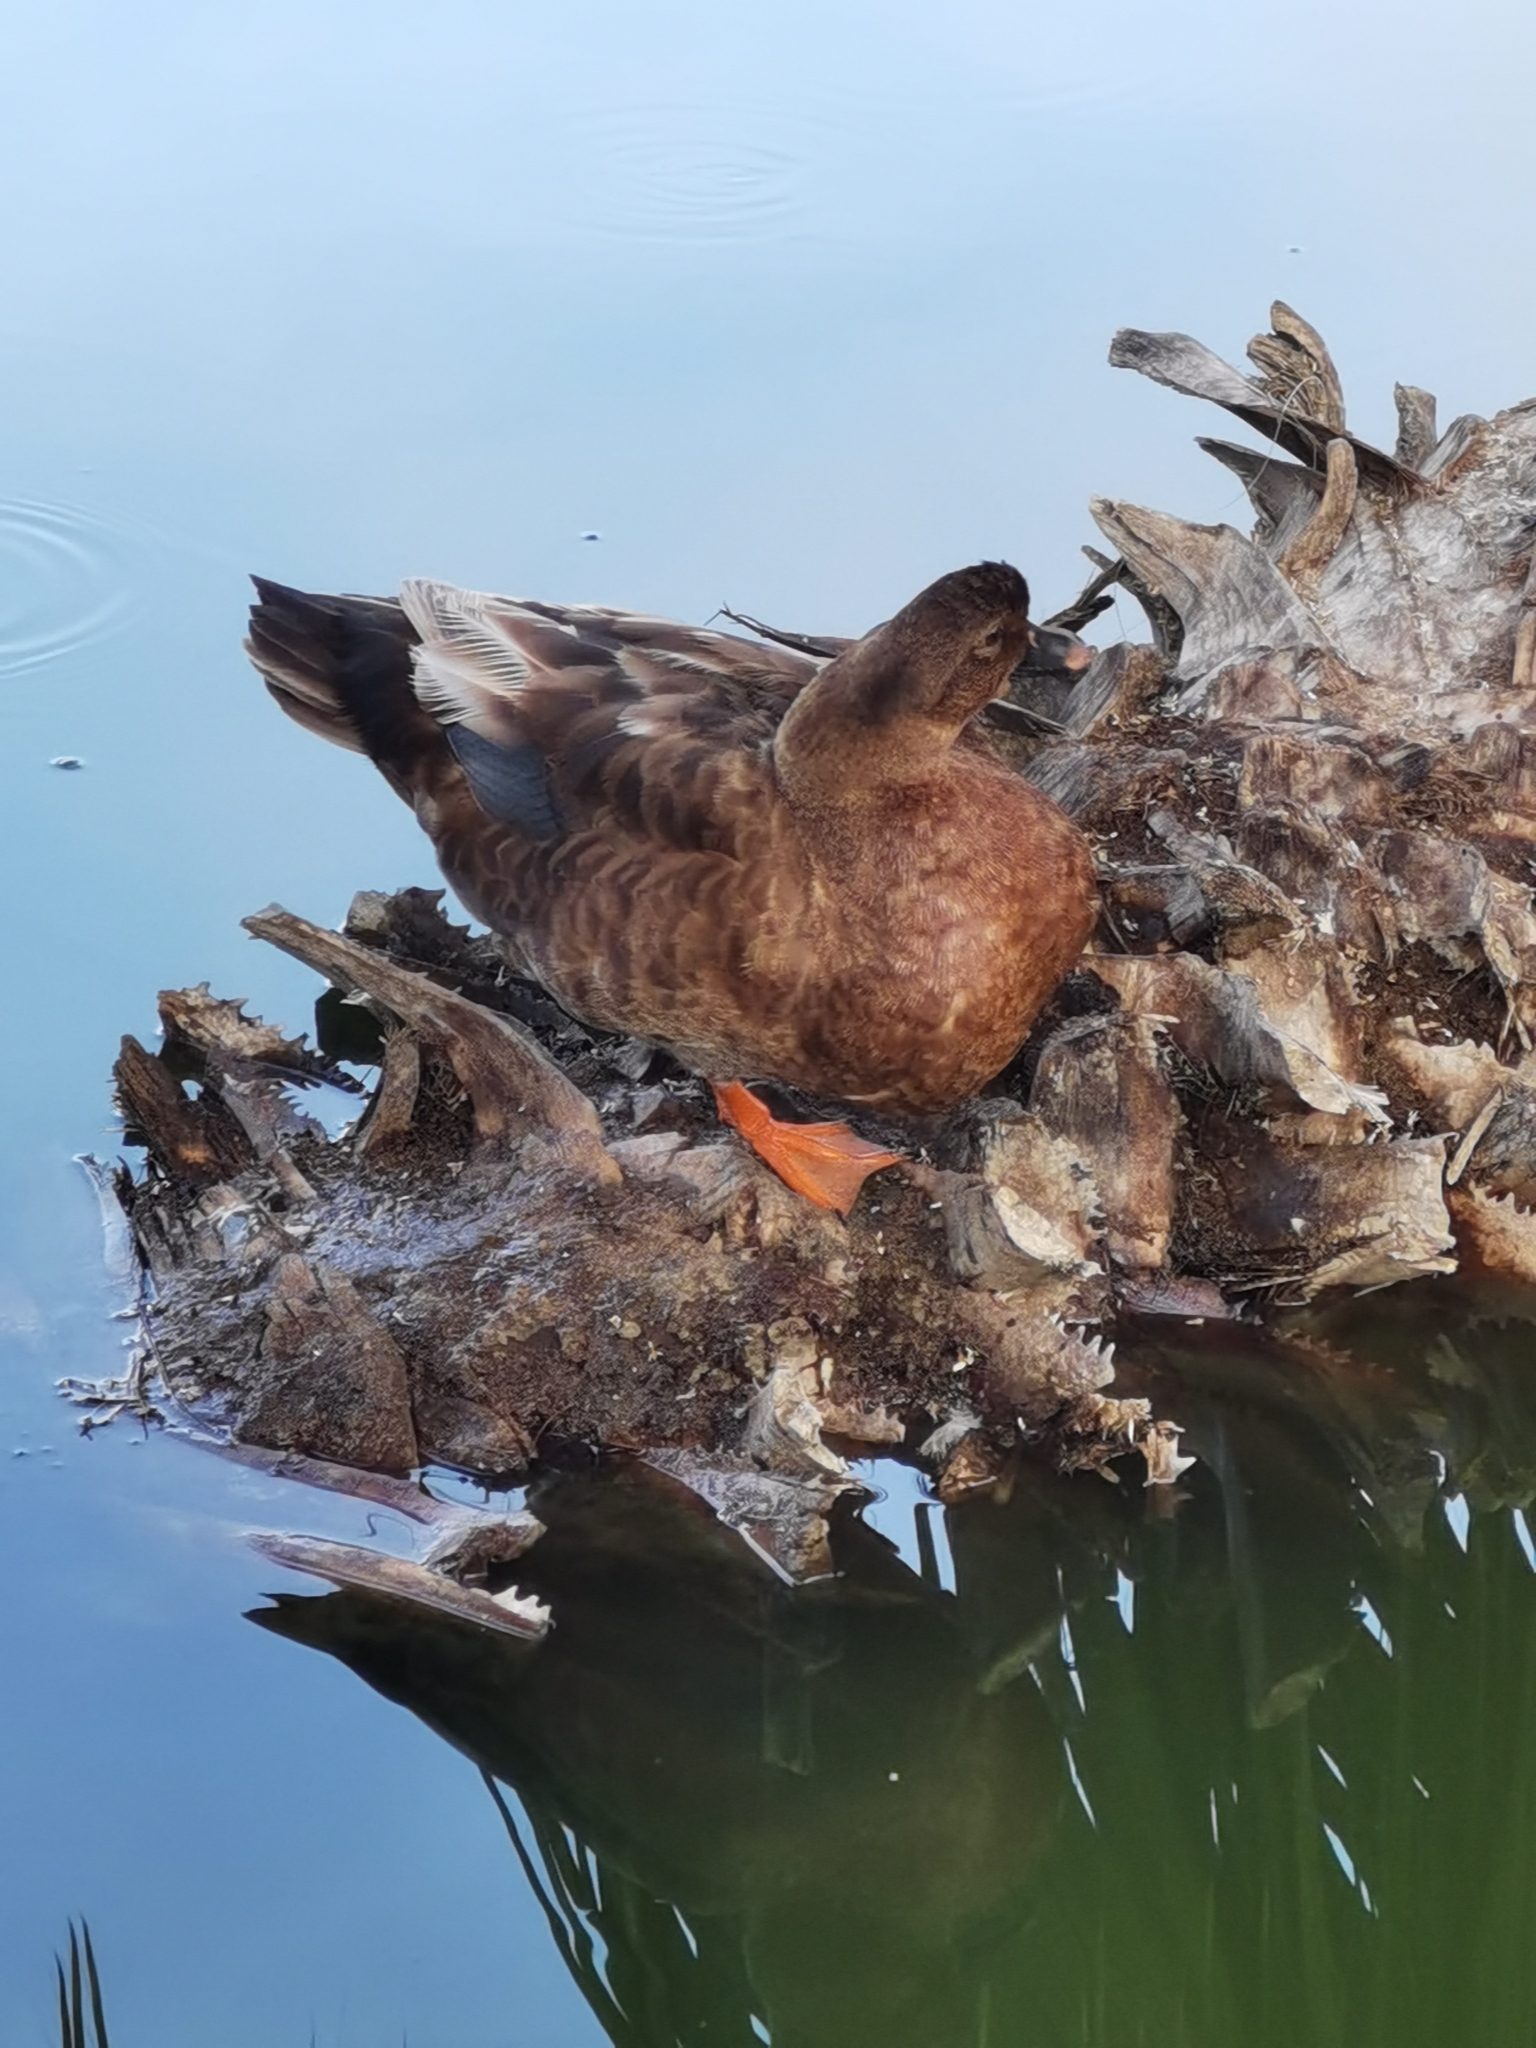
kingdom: Animalia
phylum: Chordata
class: Aves
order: Anseriformes
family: Anatidae
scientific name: Anatidae
